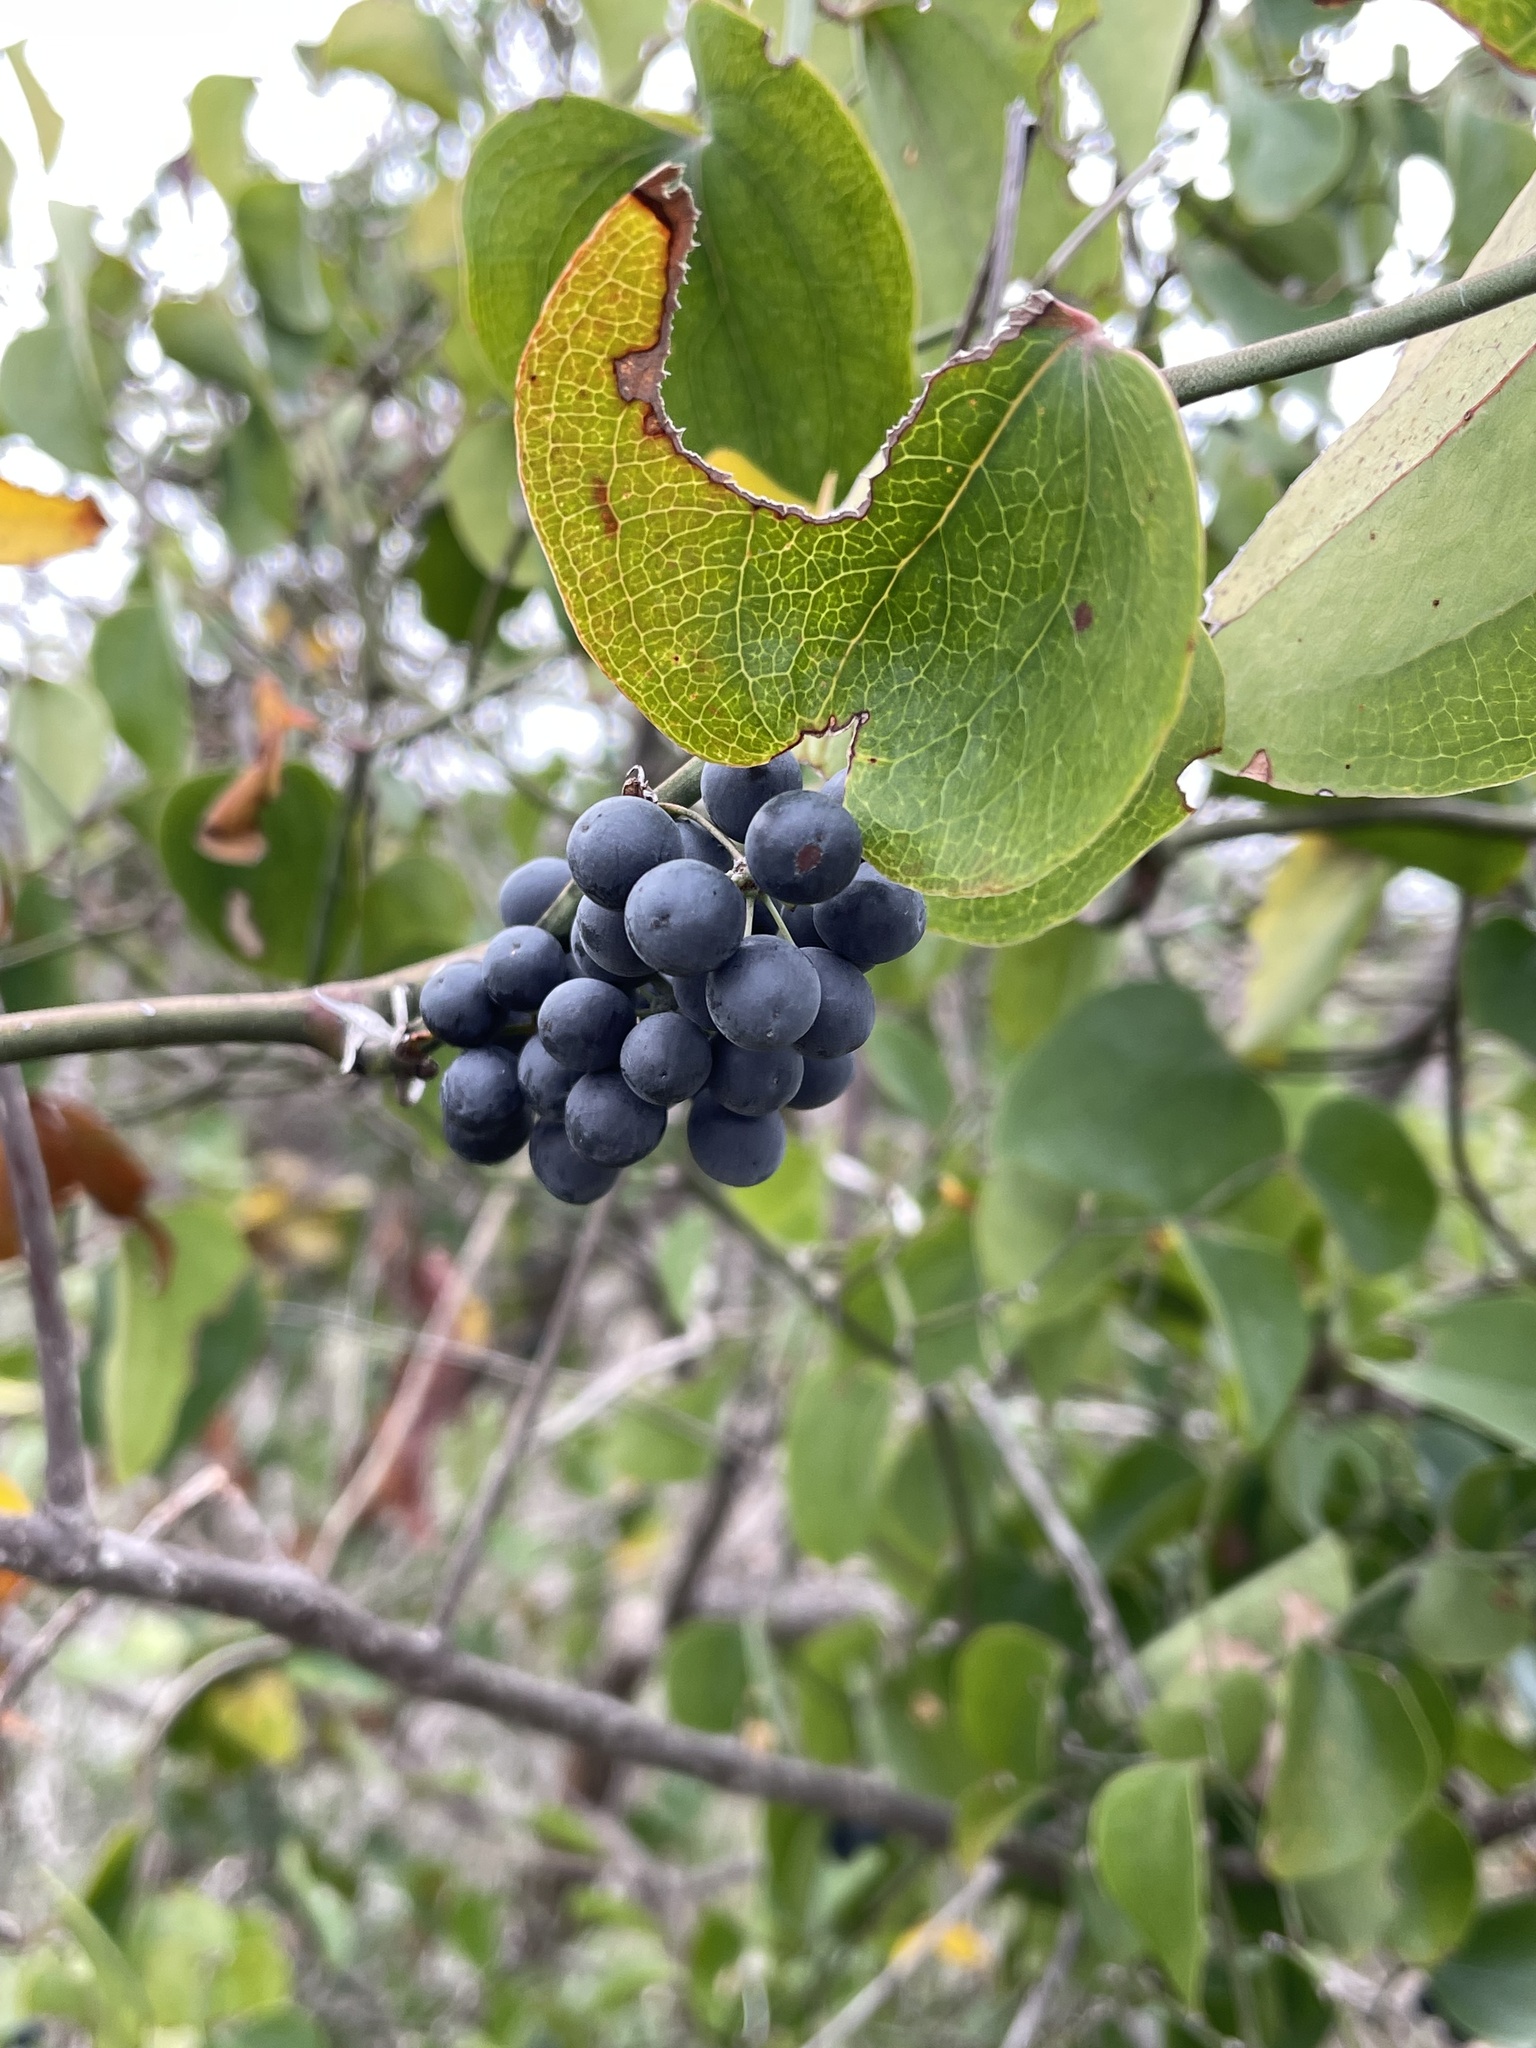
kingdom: Plantae
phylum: Tracheophyta
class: Liliopsida
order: Liliales
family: Smilacaceae
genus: Smilax
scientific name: Smilax bona-nox
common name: Catbrier
